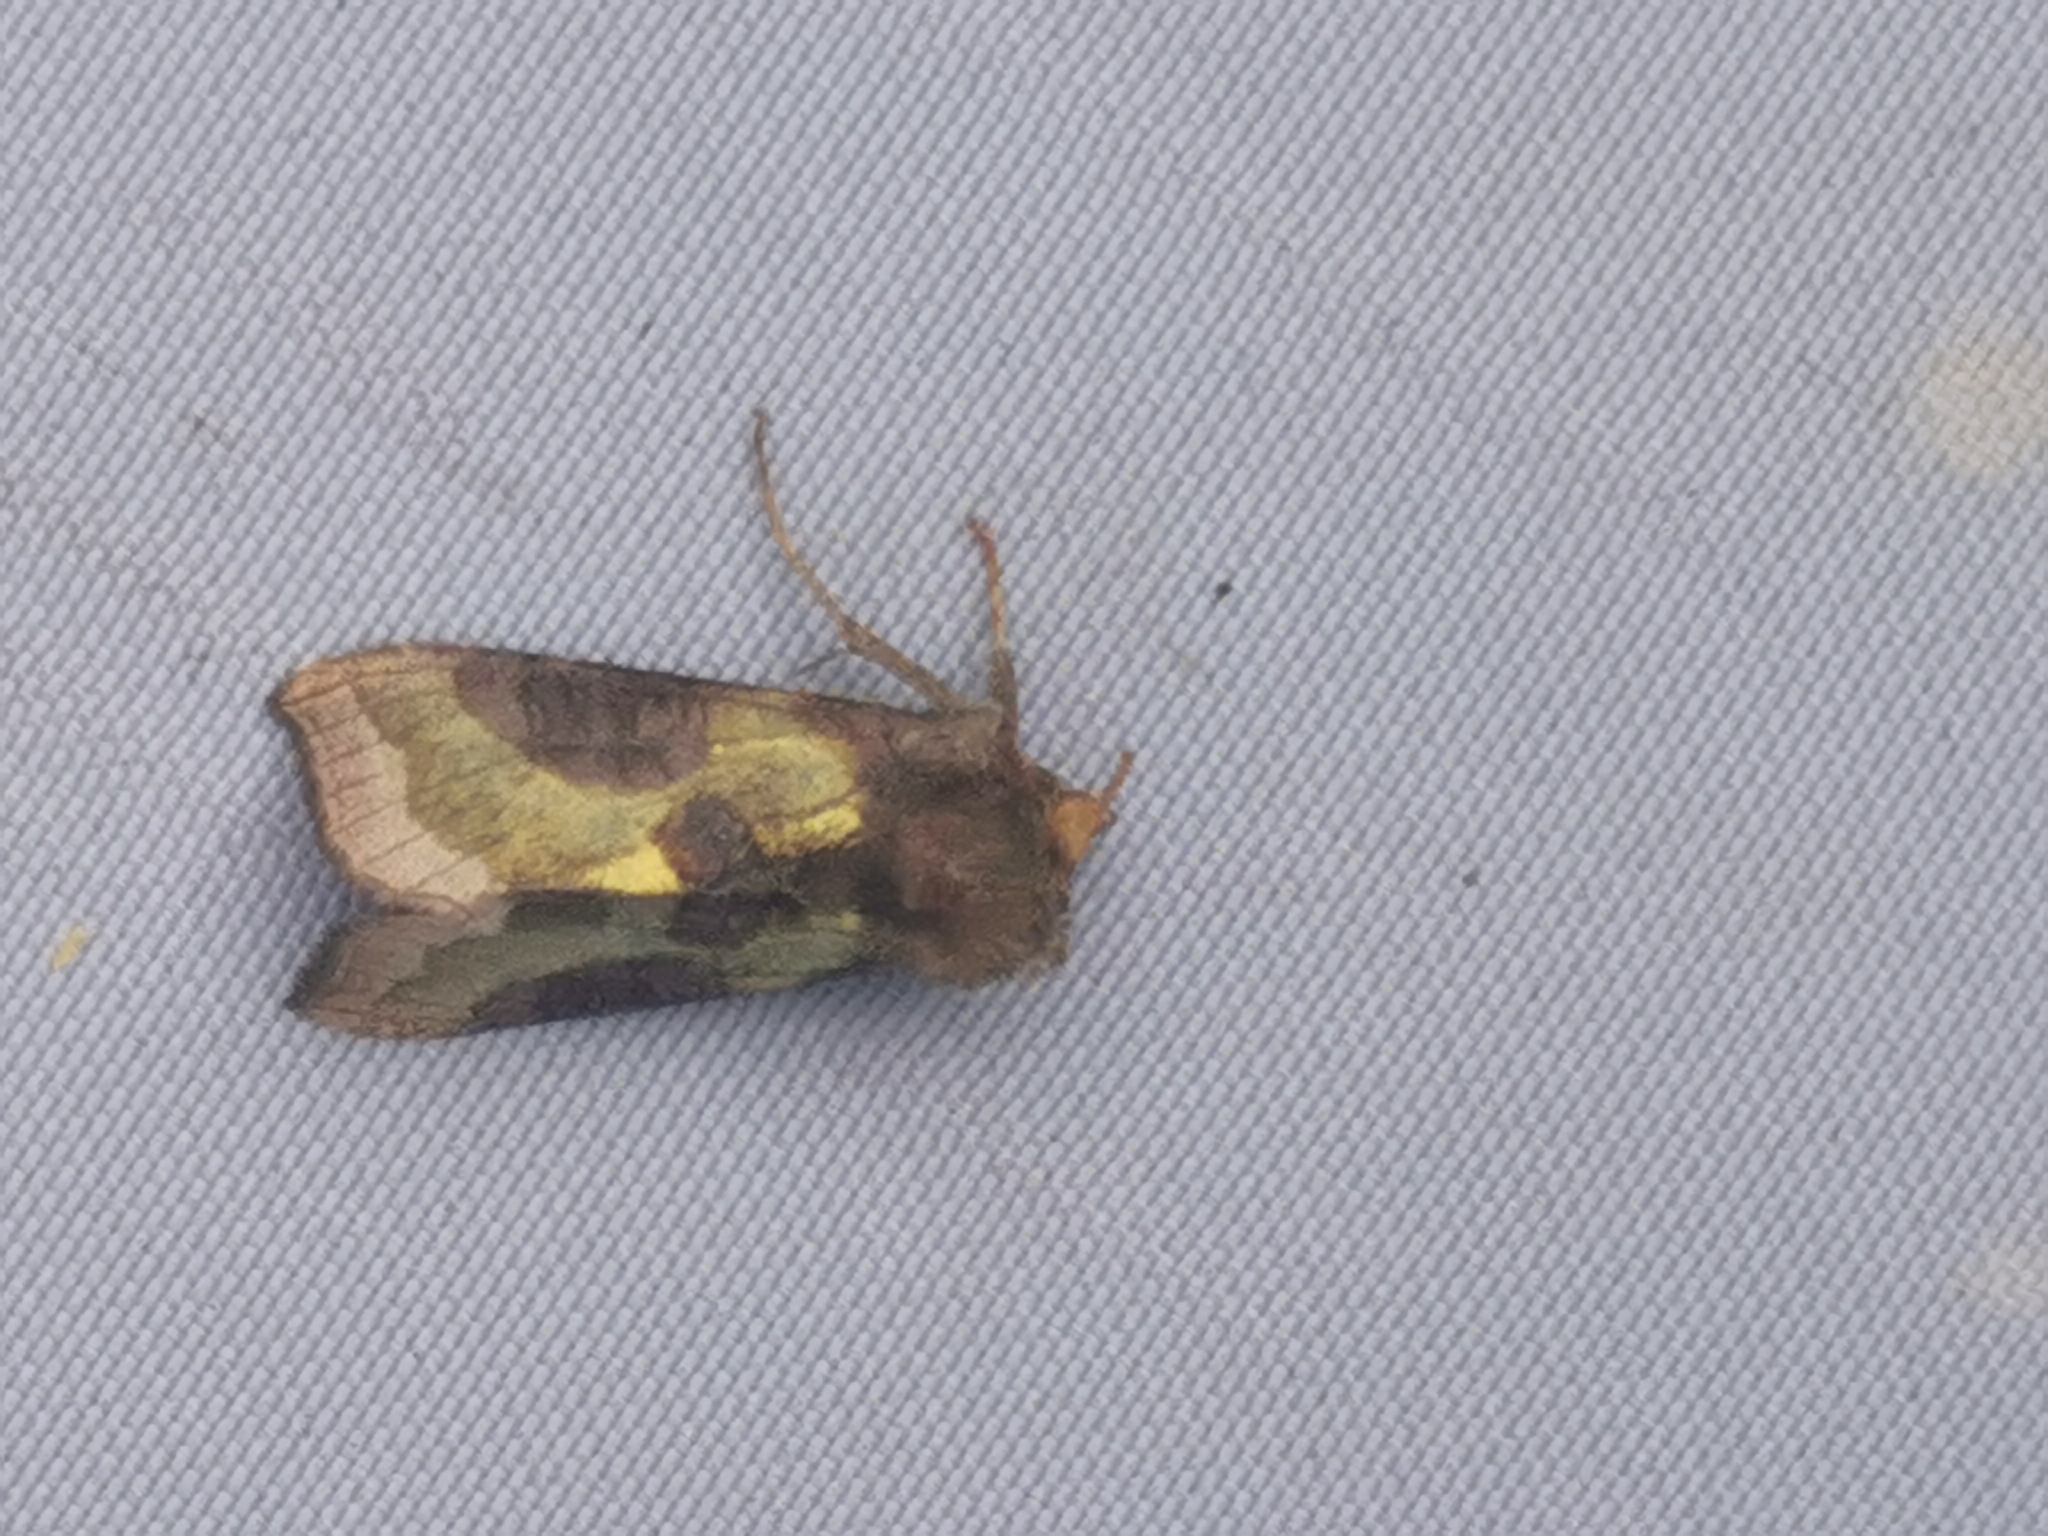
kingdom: Animalia
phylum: Arthropoda
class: Insecta
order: Lepidoptera
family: Noctuidae
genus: Diachrysia
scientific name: Diachrysia chrysitis
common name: Burnished brass
